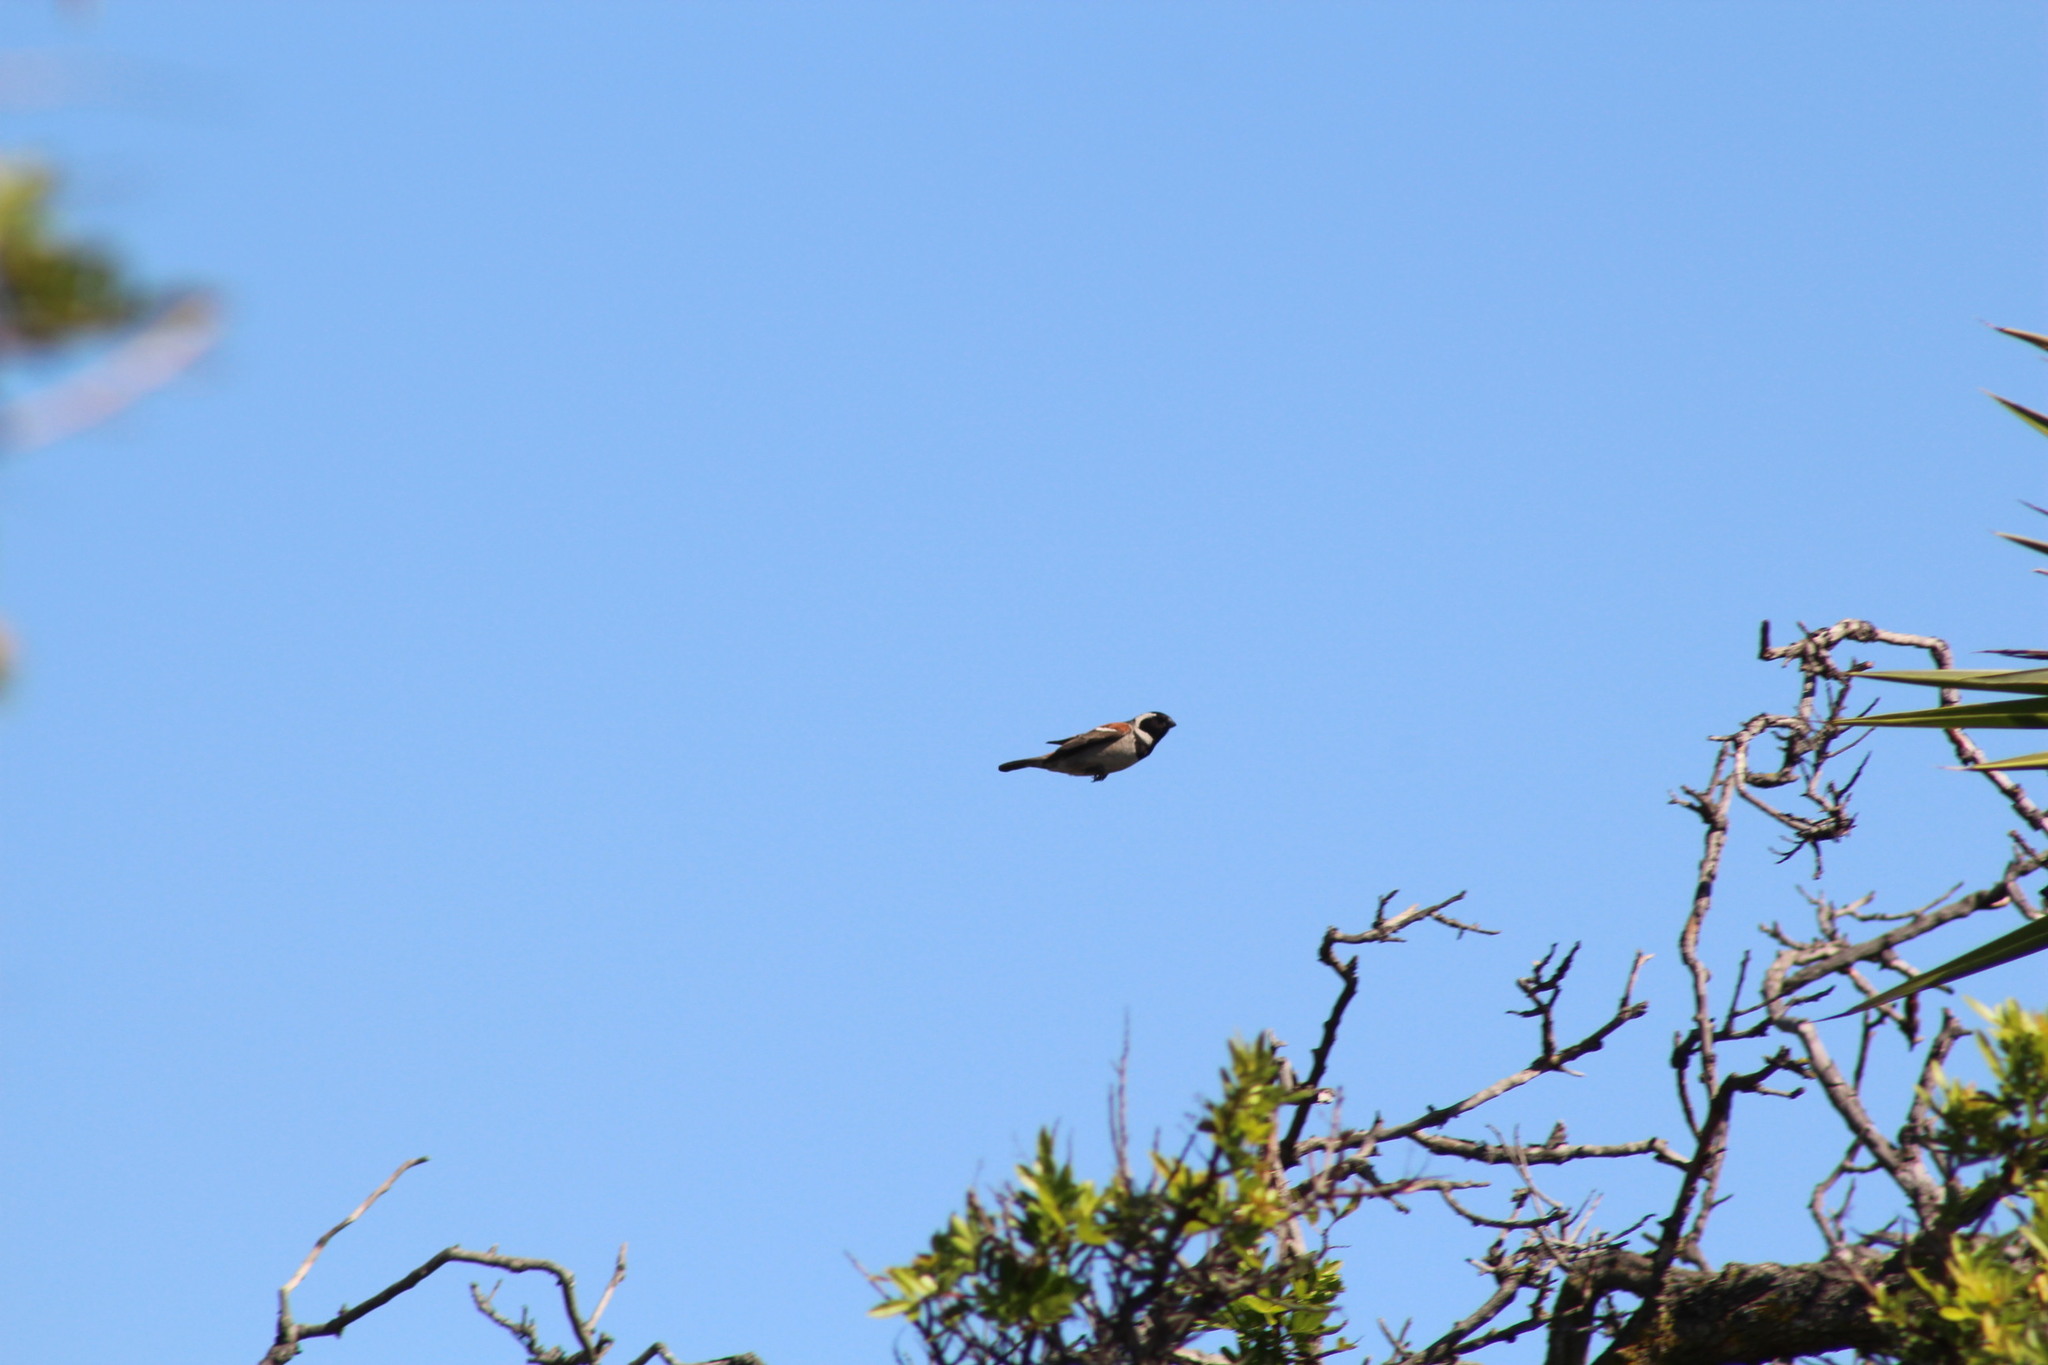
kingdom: Animalia
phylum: Chordata
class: Aves
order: Passeriformes
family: Passeridae
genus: Passer
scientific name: Passer melanurus
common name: Cape sparrow
